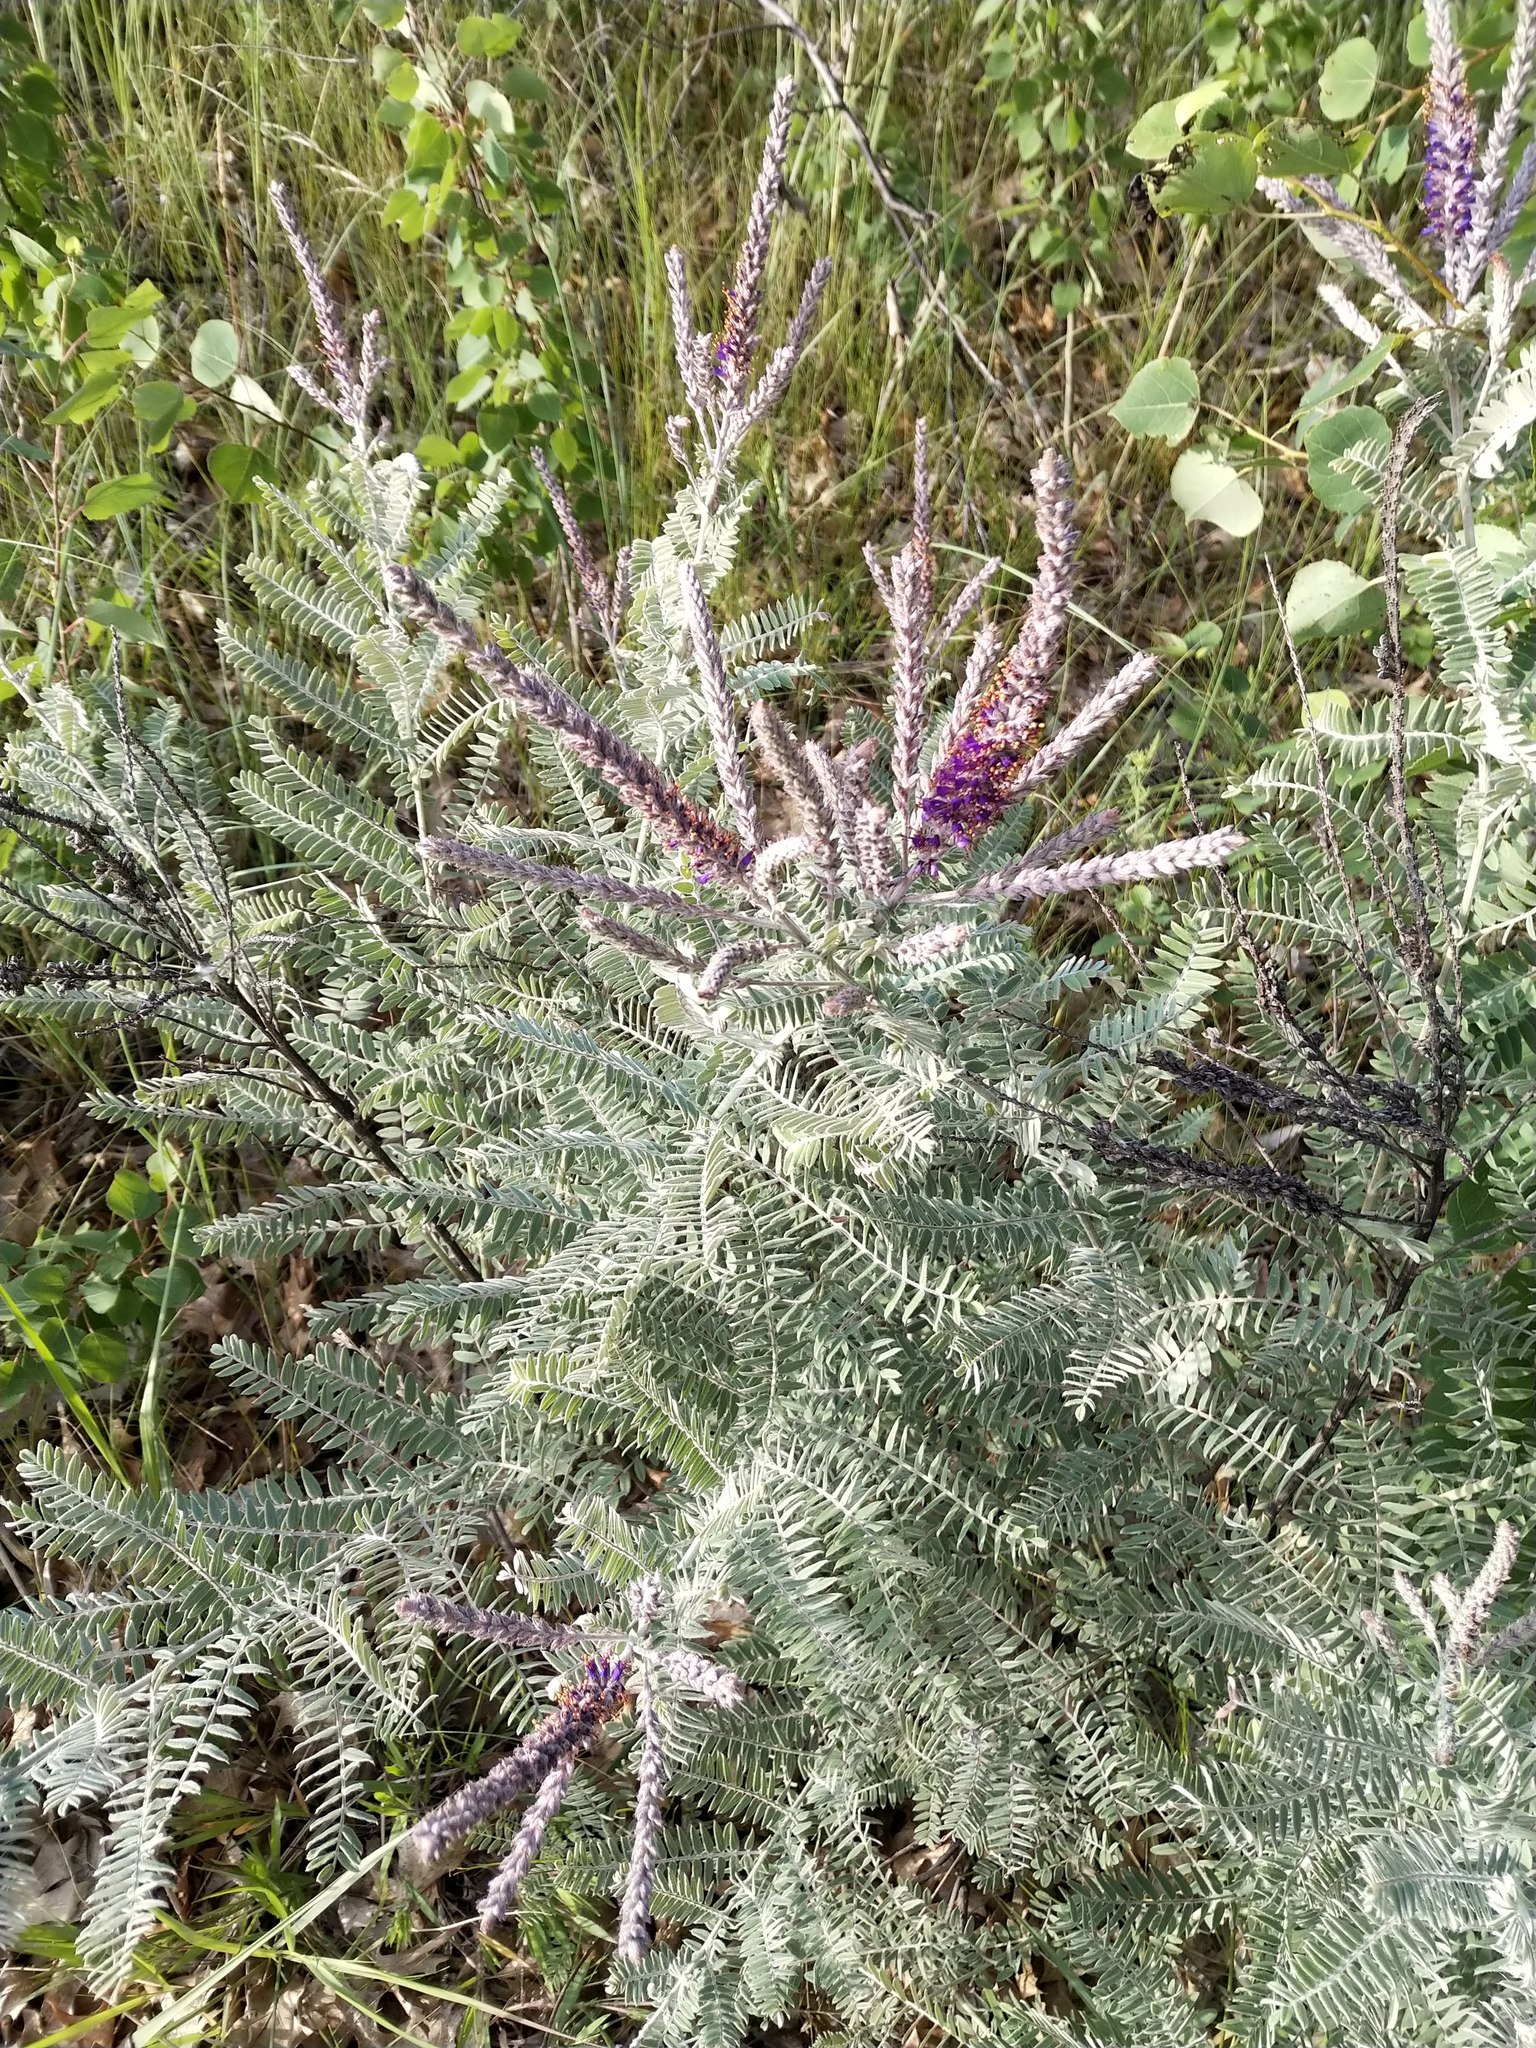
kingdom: Plantae
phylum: Tracheophyta
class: Magnoliopsida
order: Fabales
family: Fabaceae
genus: Amorpha
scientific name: Amorpha canescens
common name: Leadplant
